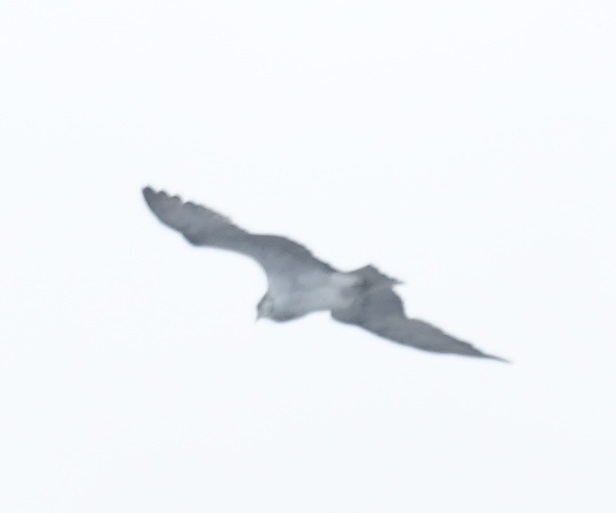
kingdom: Animalia
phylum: Chordata
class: Aves
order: Accipitriformes
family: Pandionidae
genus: Pandion
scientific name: Pandion haliaetus
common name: Osprey
